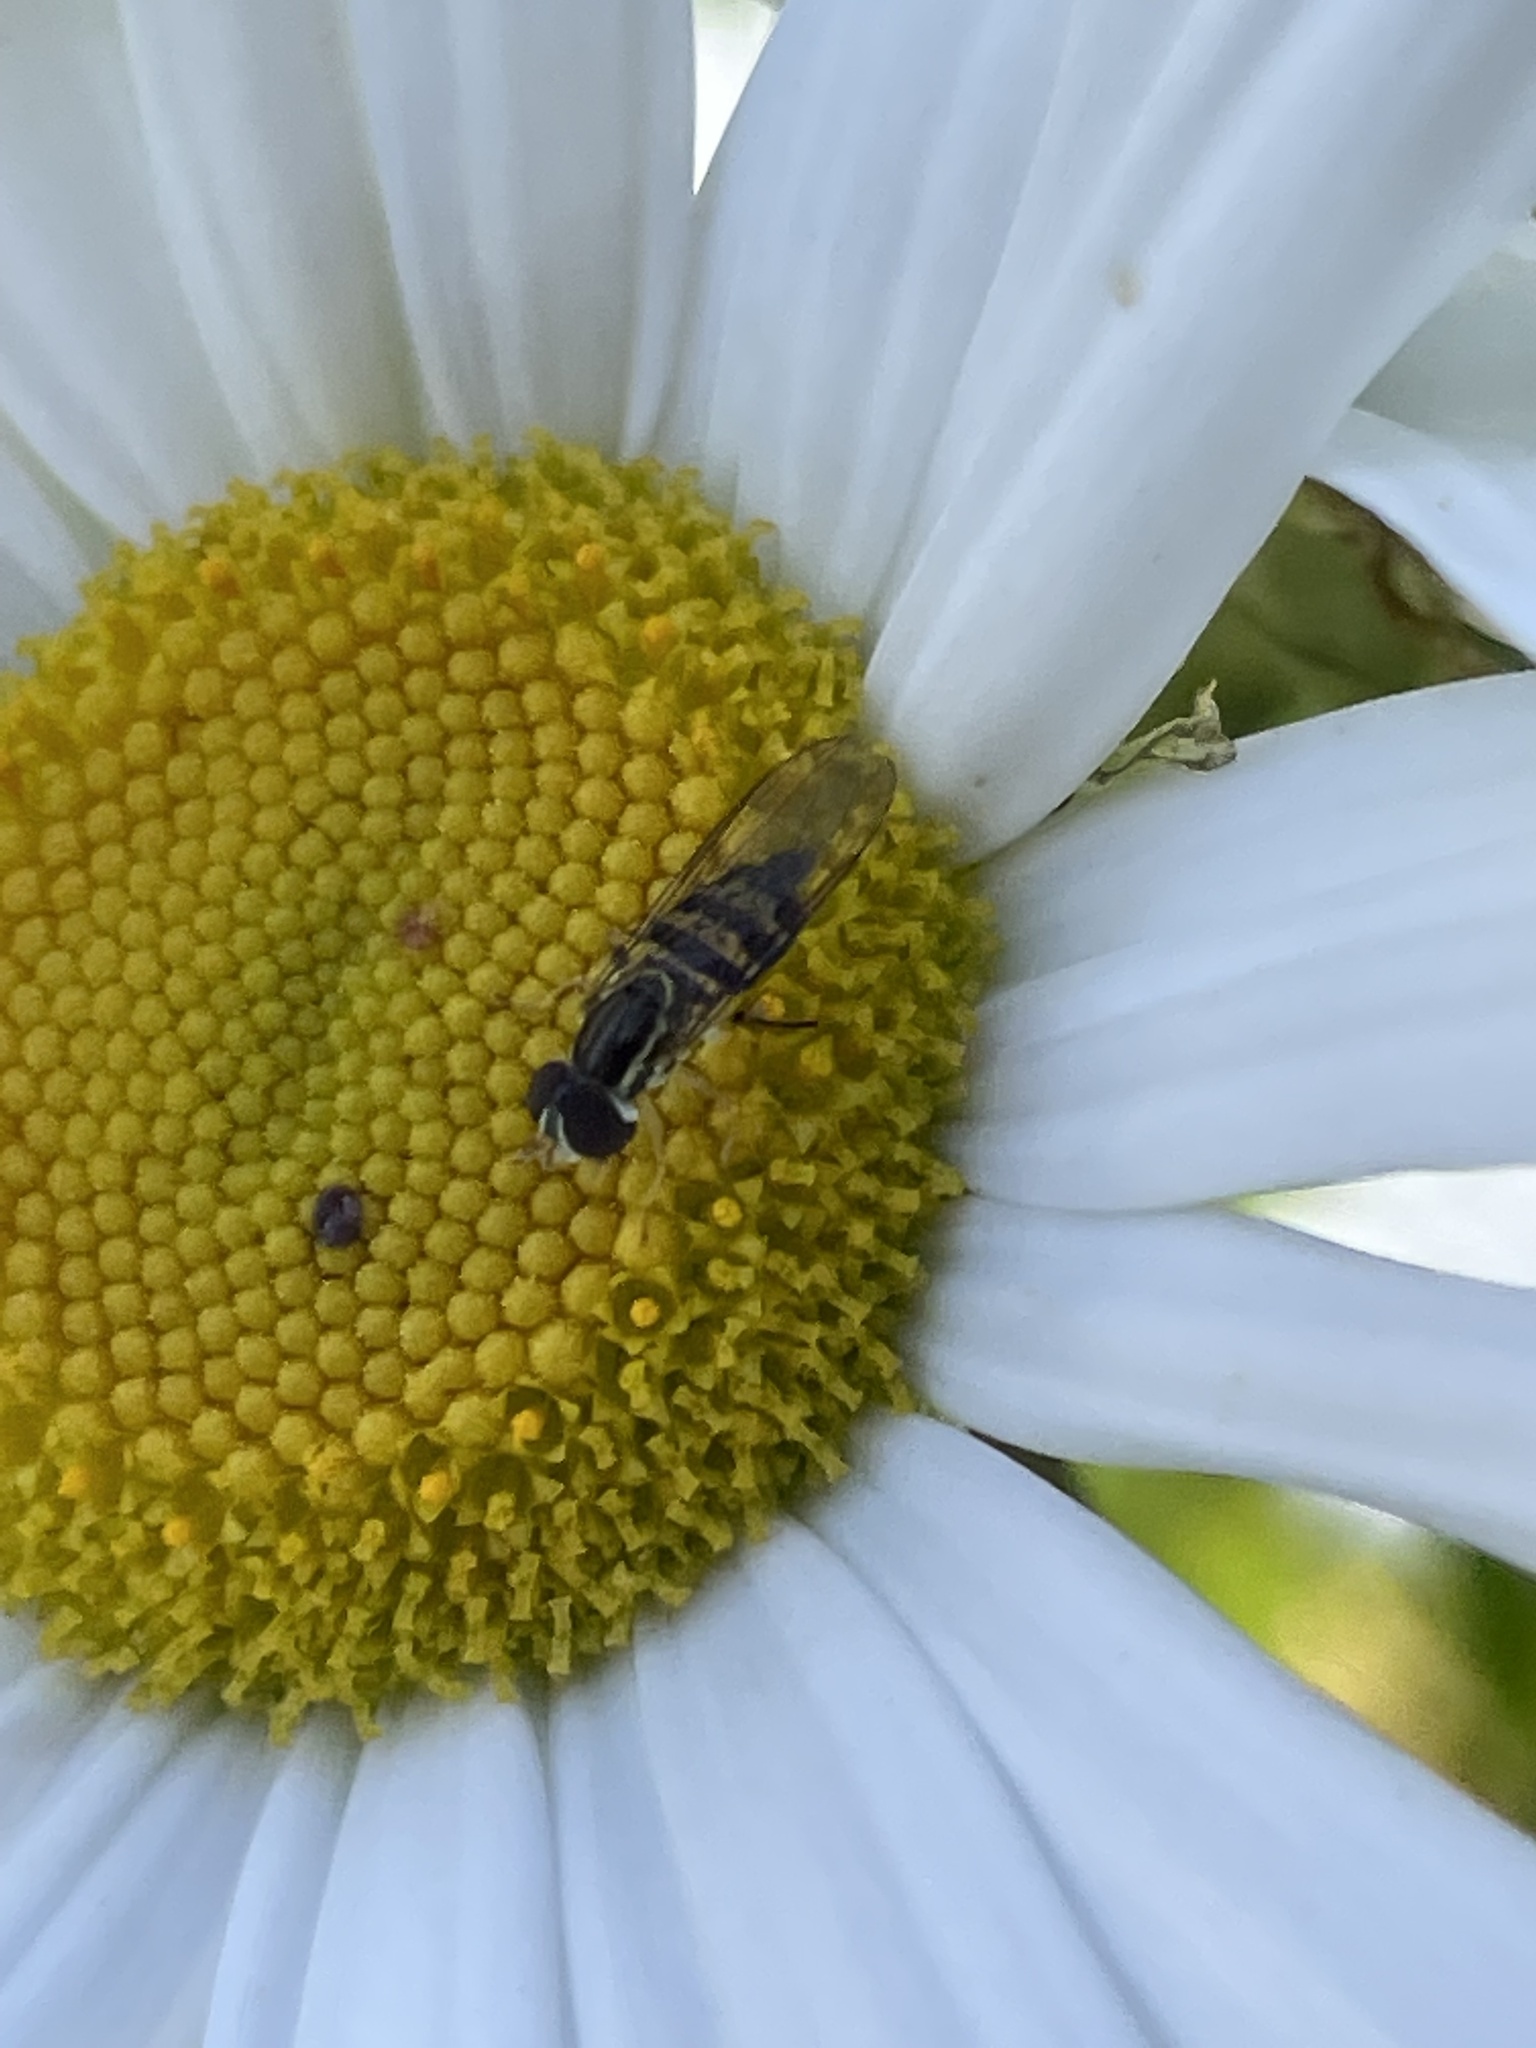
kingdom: Animalia
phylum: Arthropoda
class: Insecta
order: Diptera
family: Syrphidae
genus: Toxomerus
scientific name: Toxomerus geminatus
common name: Eastern calligrapher
